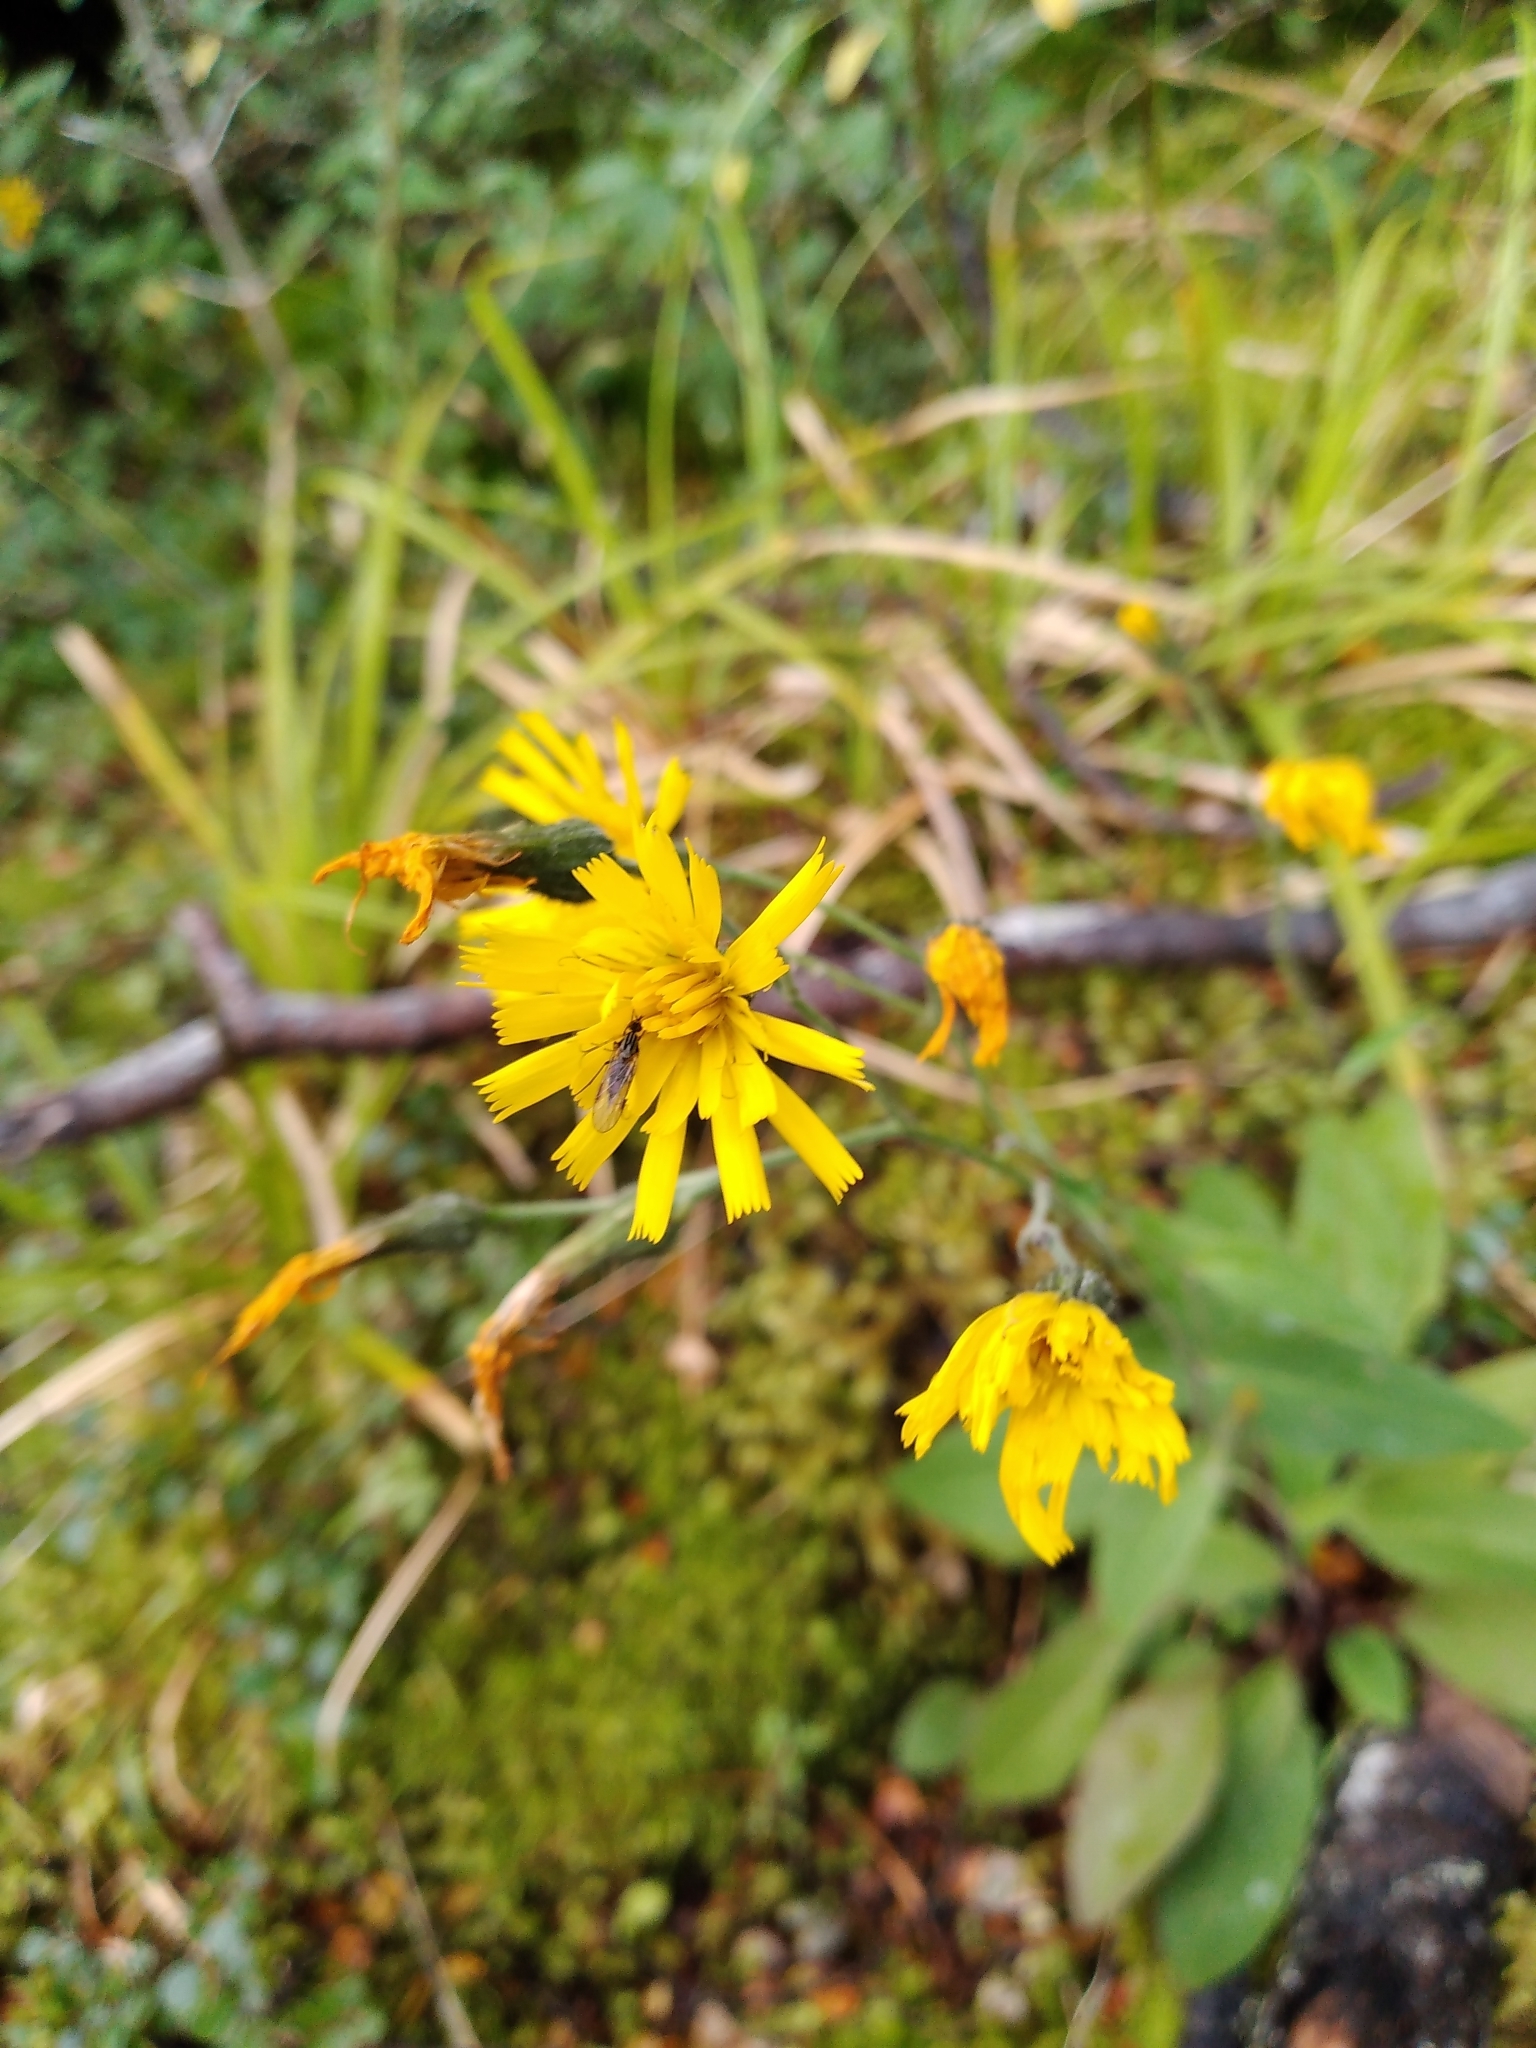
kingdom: Plantae
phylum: Tracheophyta
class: Magnoliopsida
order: Asterales
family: Asteraceae
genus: Hieracium
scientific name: Hieracium lepidulum
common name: Irregular-toothed hawkweed
